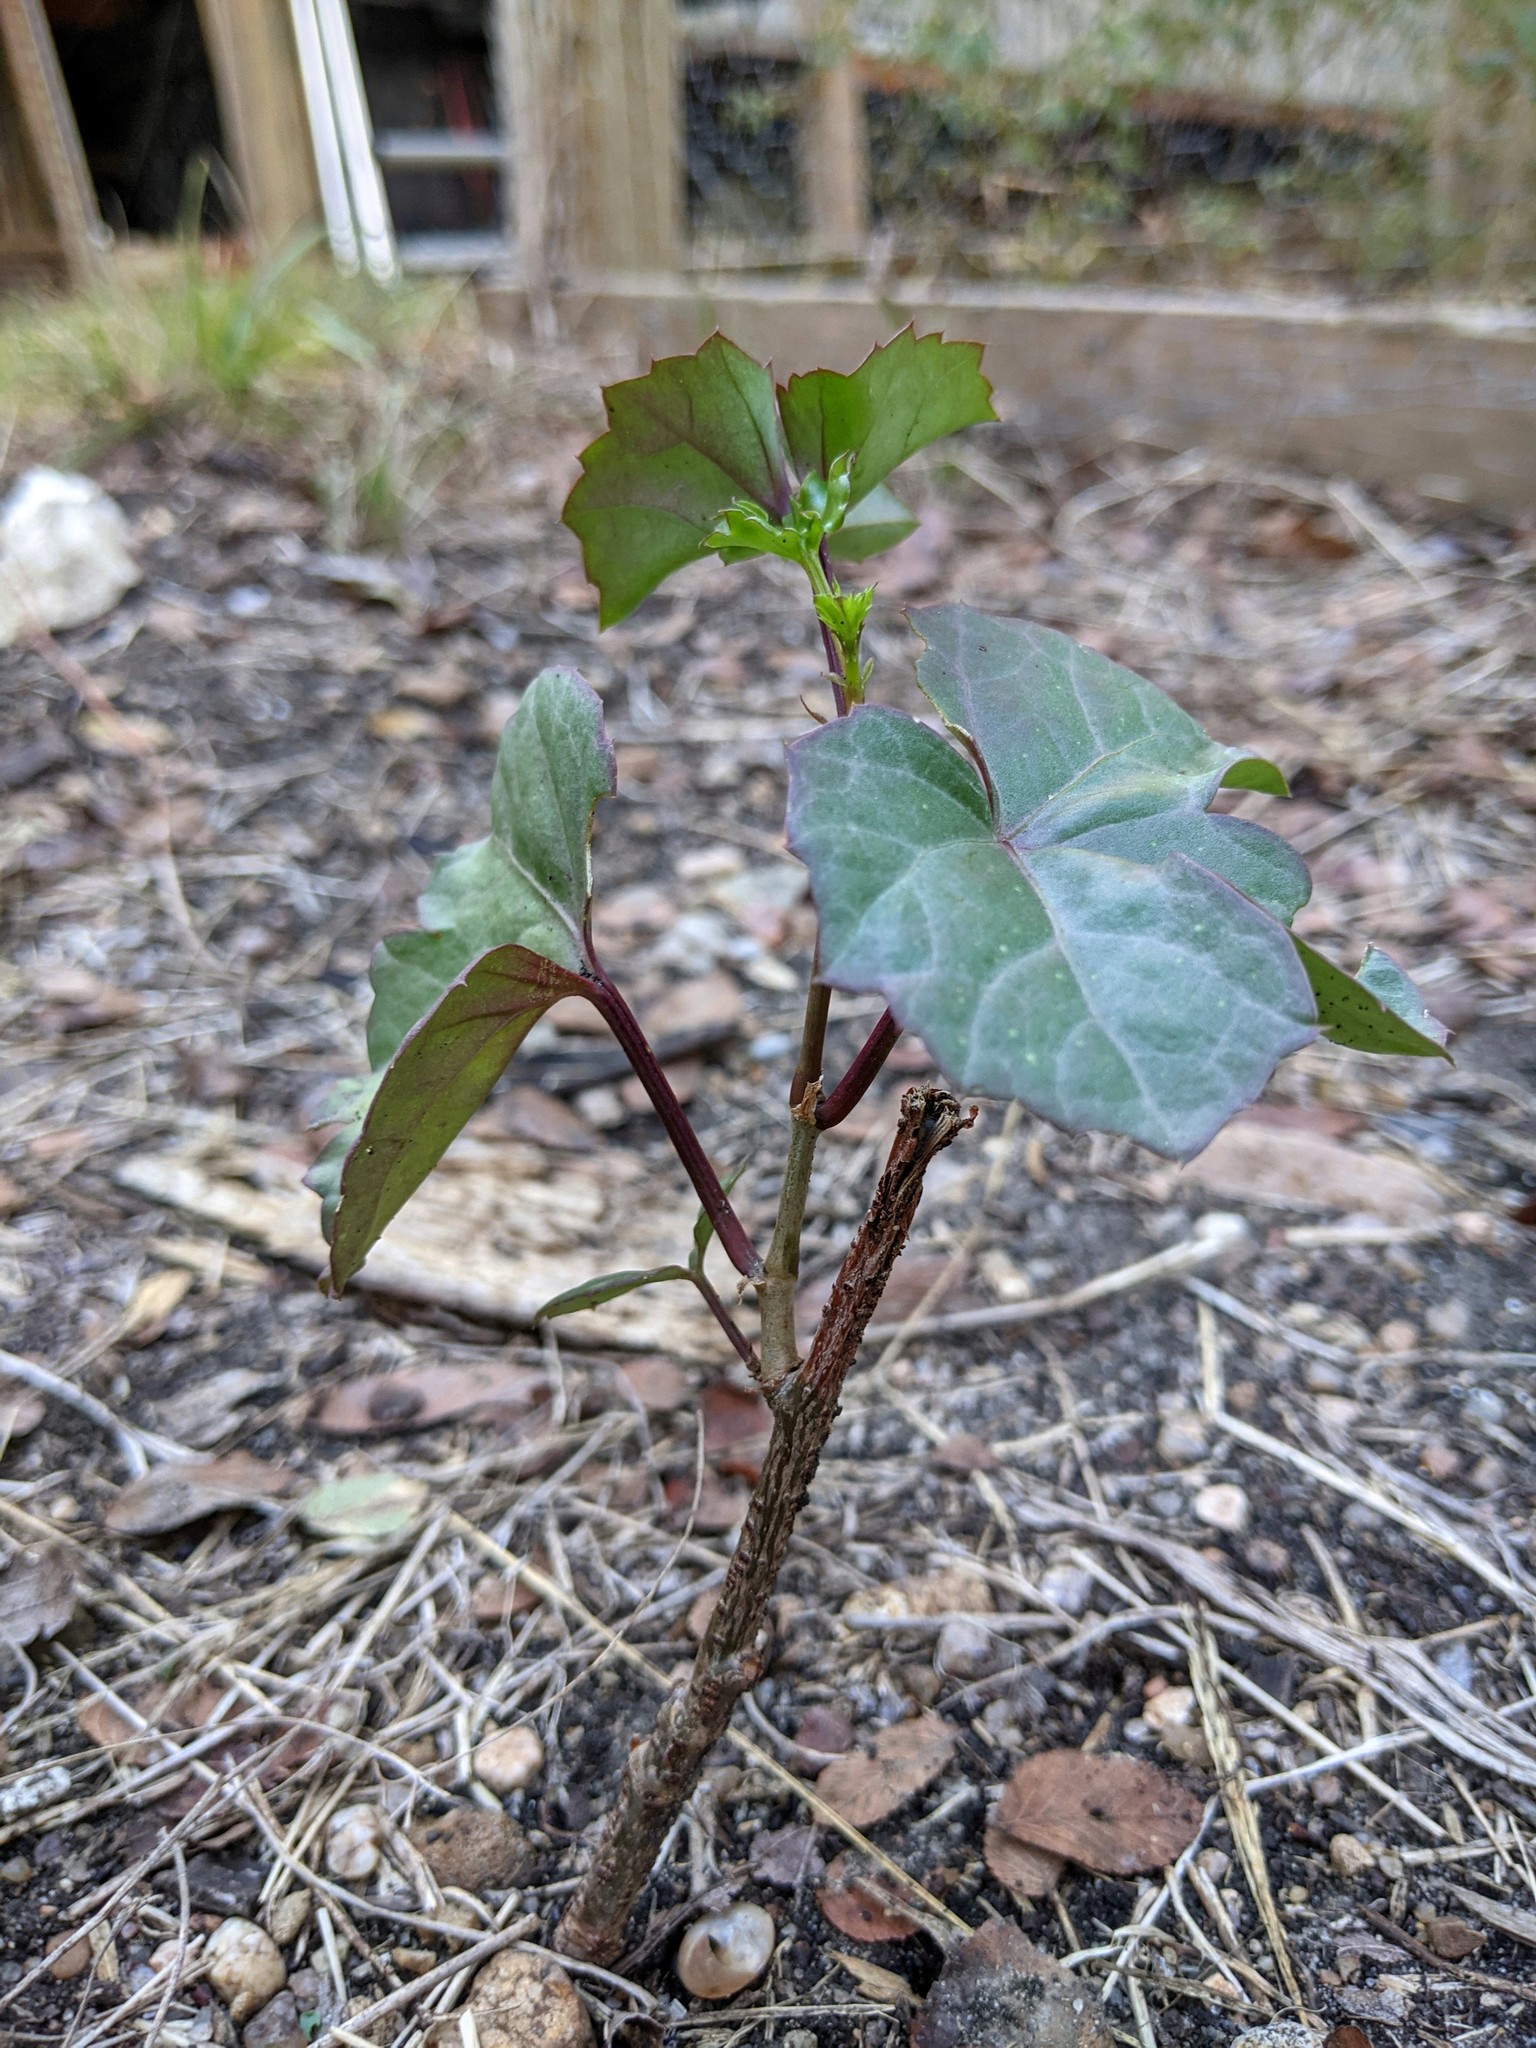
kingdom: Plantae
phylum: Tracheophyta
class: Magnoliopsida
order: Vitales
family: Vitaceae
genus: Cissus
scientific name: Cissus trifoliata
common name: Vine-sorrel
